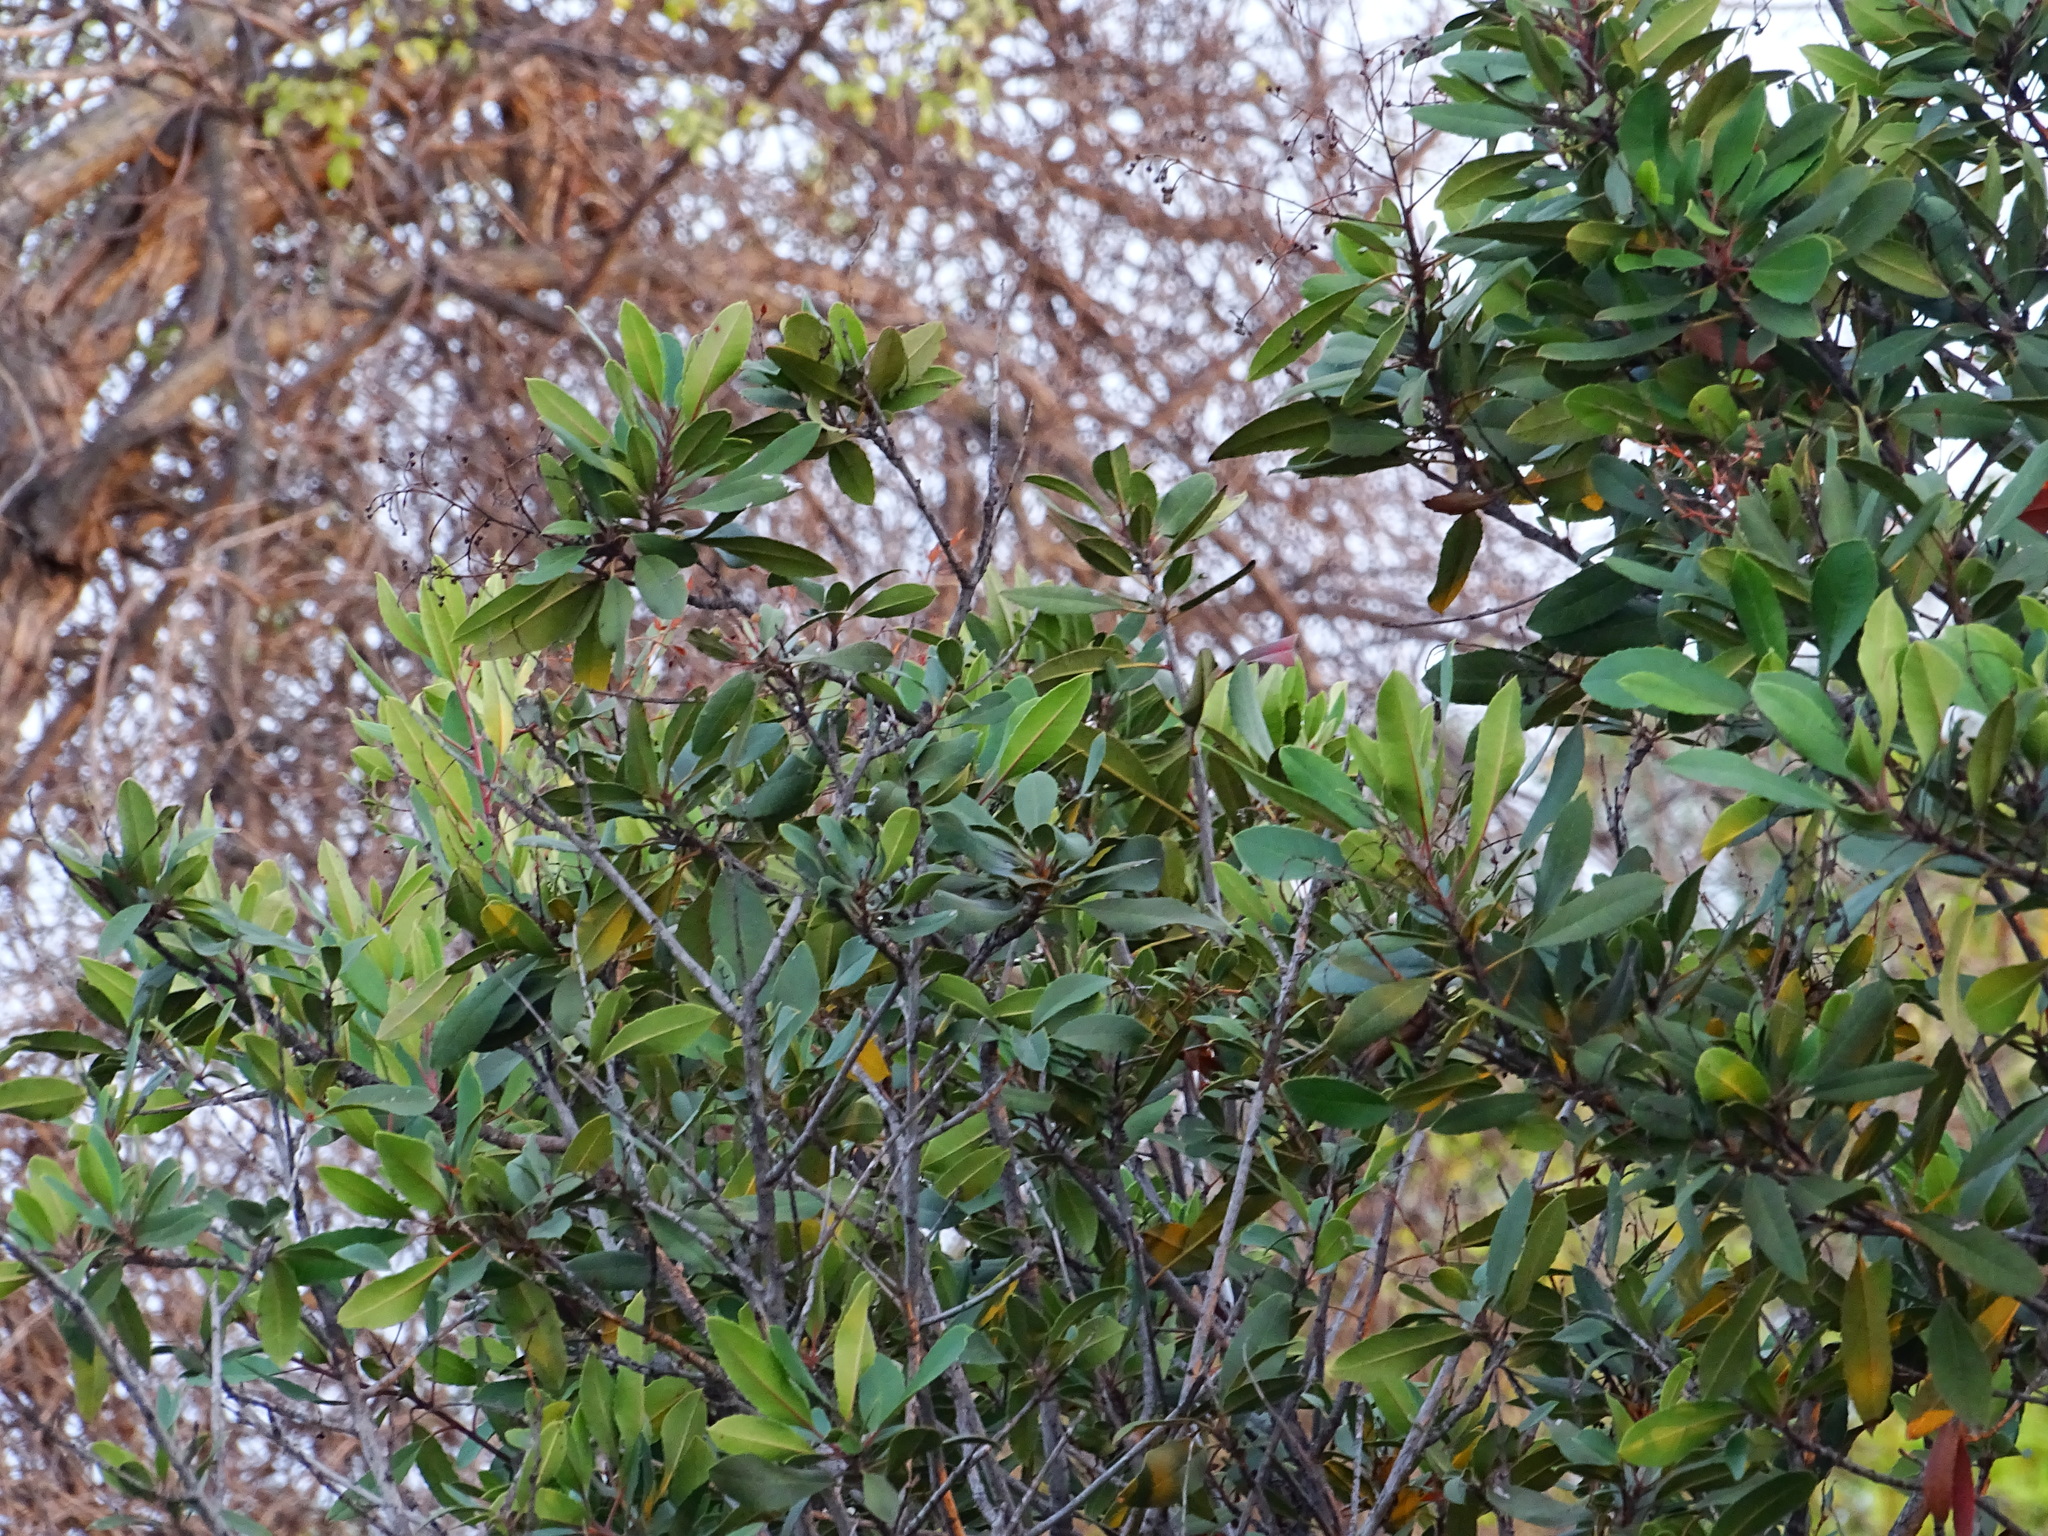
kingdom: Plantae
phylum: Tracheophyta
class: Magnoliopsida
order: Rosales
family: Rosaceae
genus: Heteromeles
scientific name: Heteromeles arbutifolia
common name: California-holly
